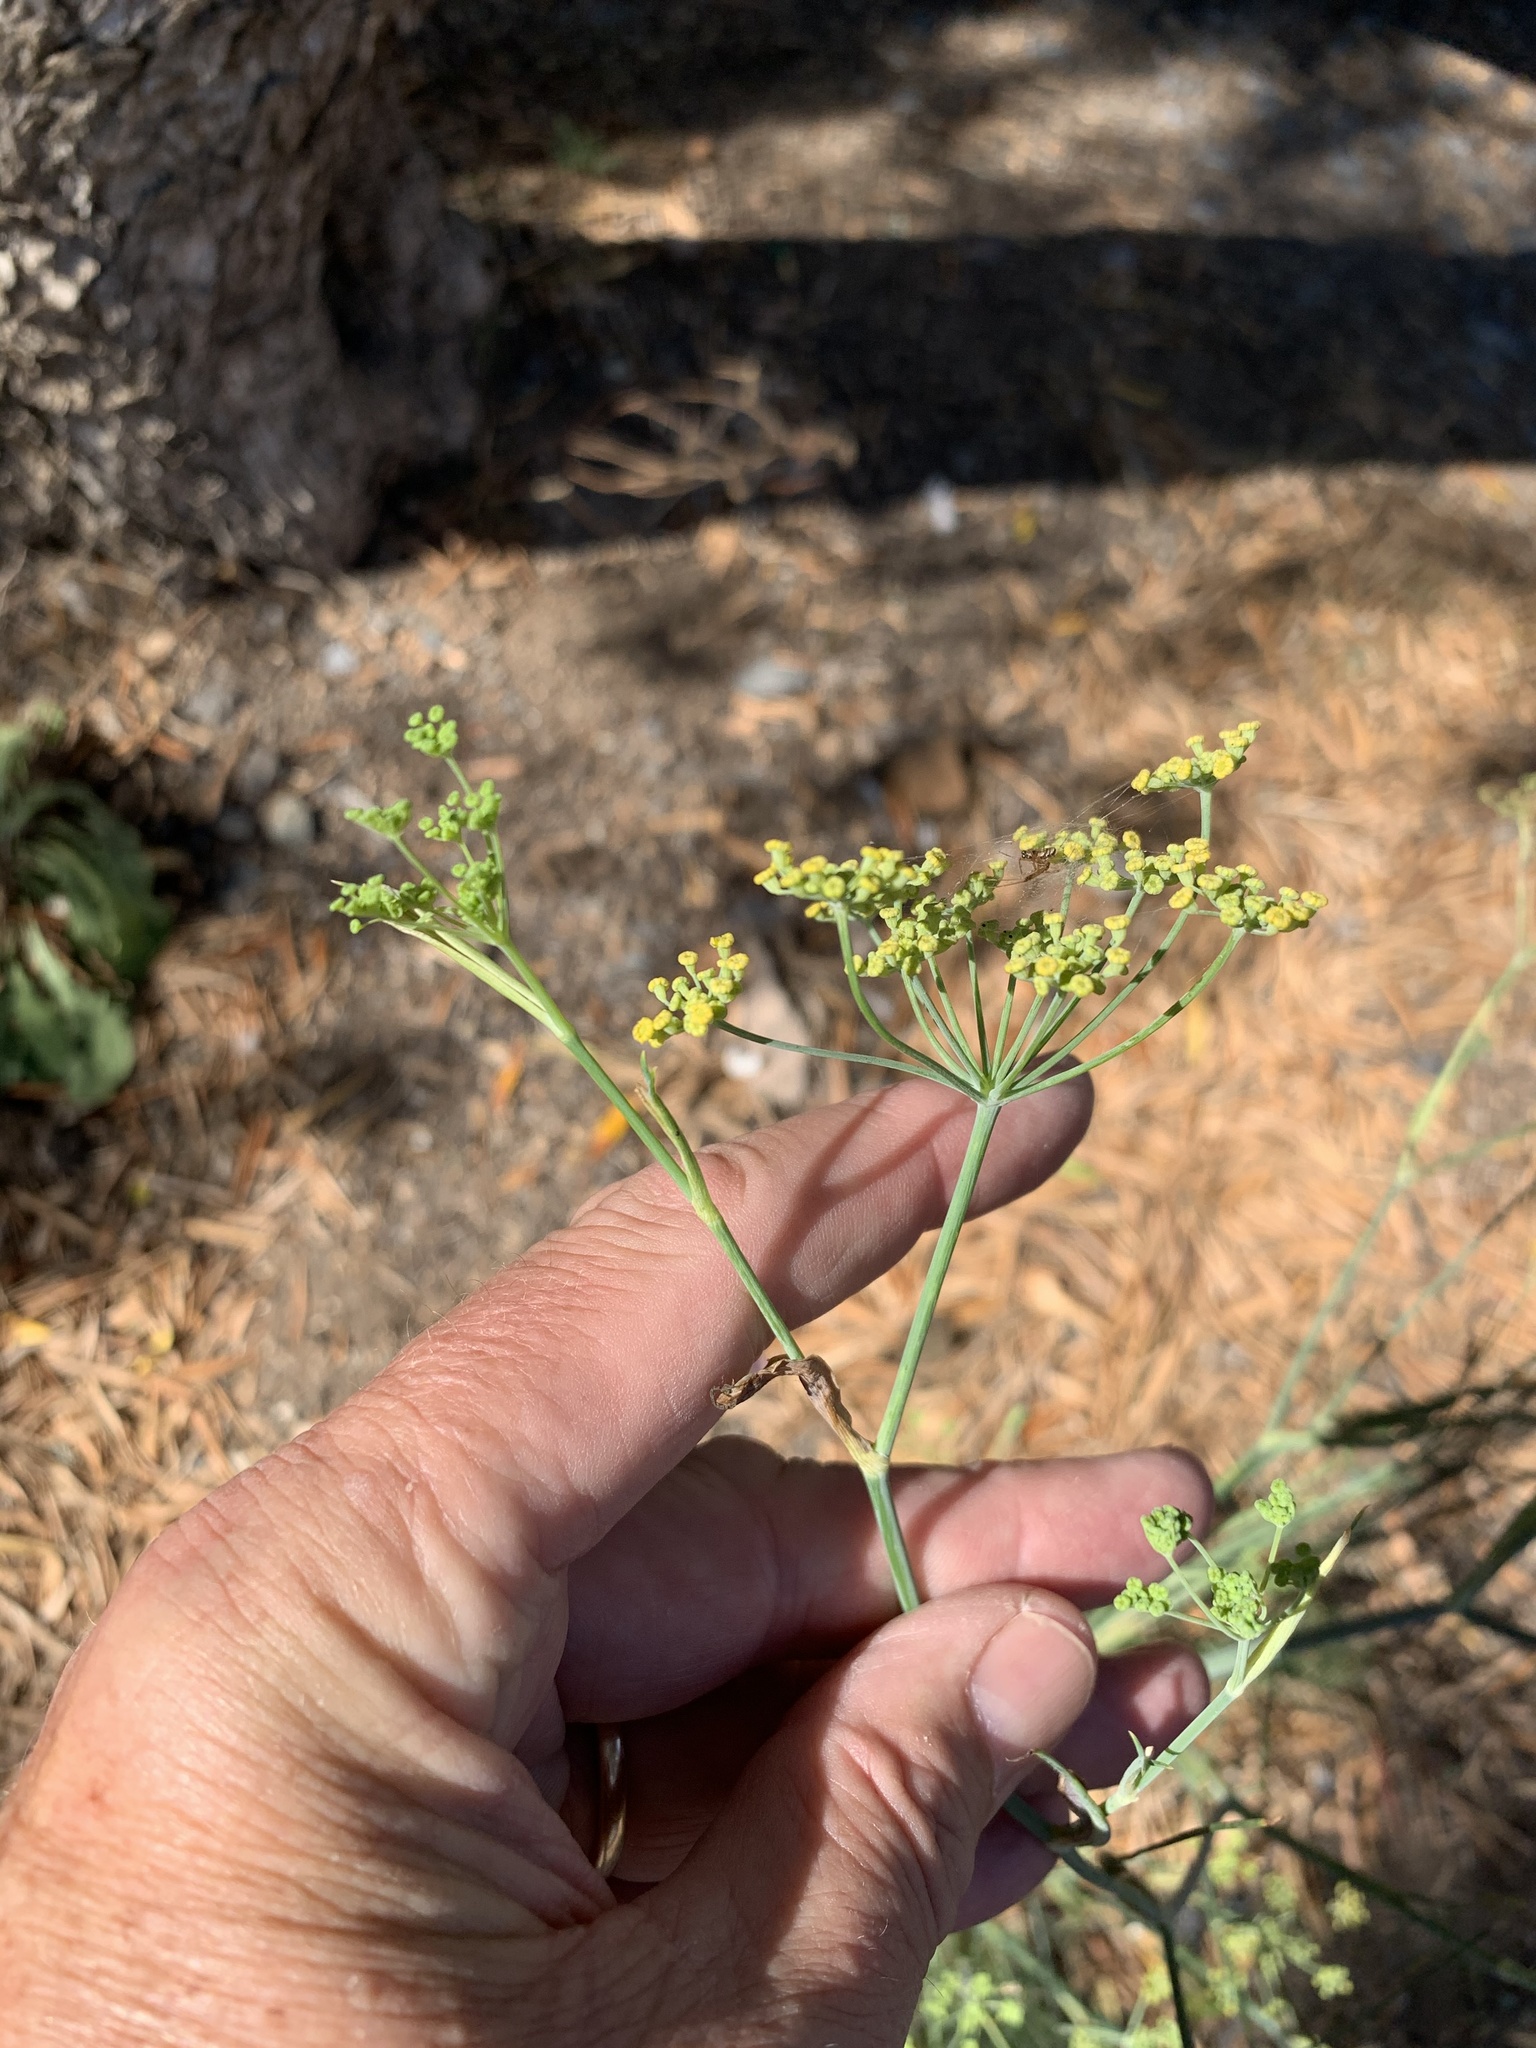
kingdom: Plantae
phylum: Tracheophyta
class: Magnoliopsida
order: Apiales
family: Apiaceae
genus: Foeniculum
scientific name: Foeniculum vulgare
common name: Fennel
